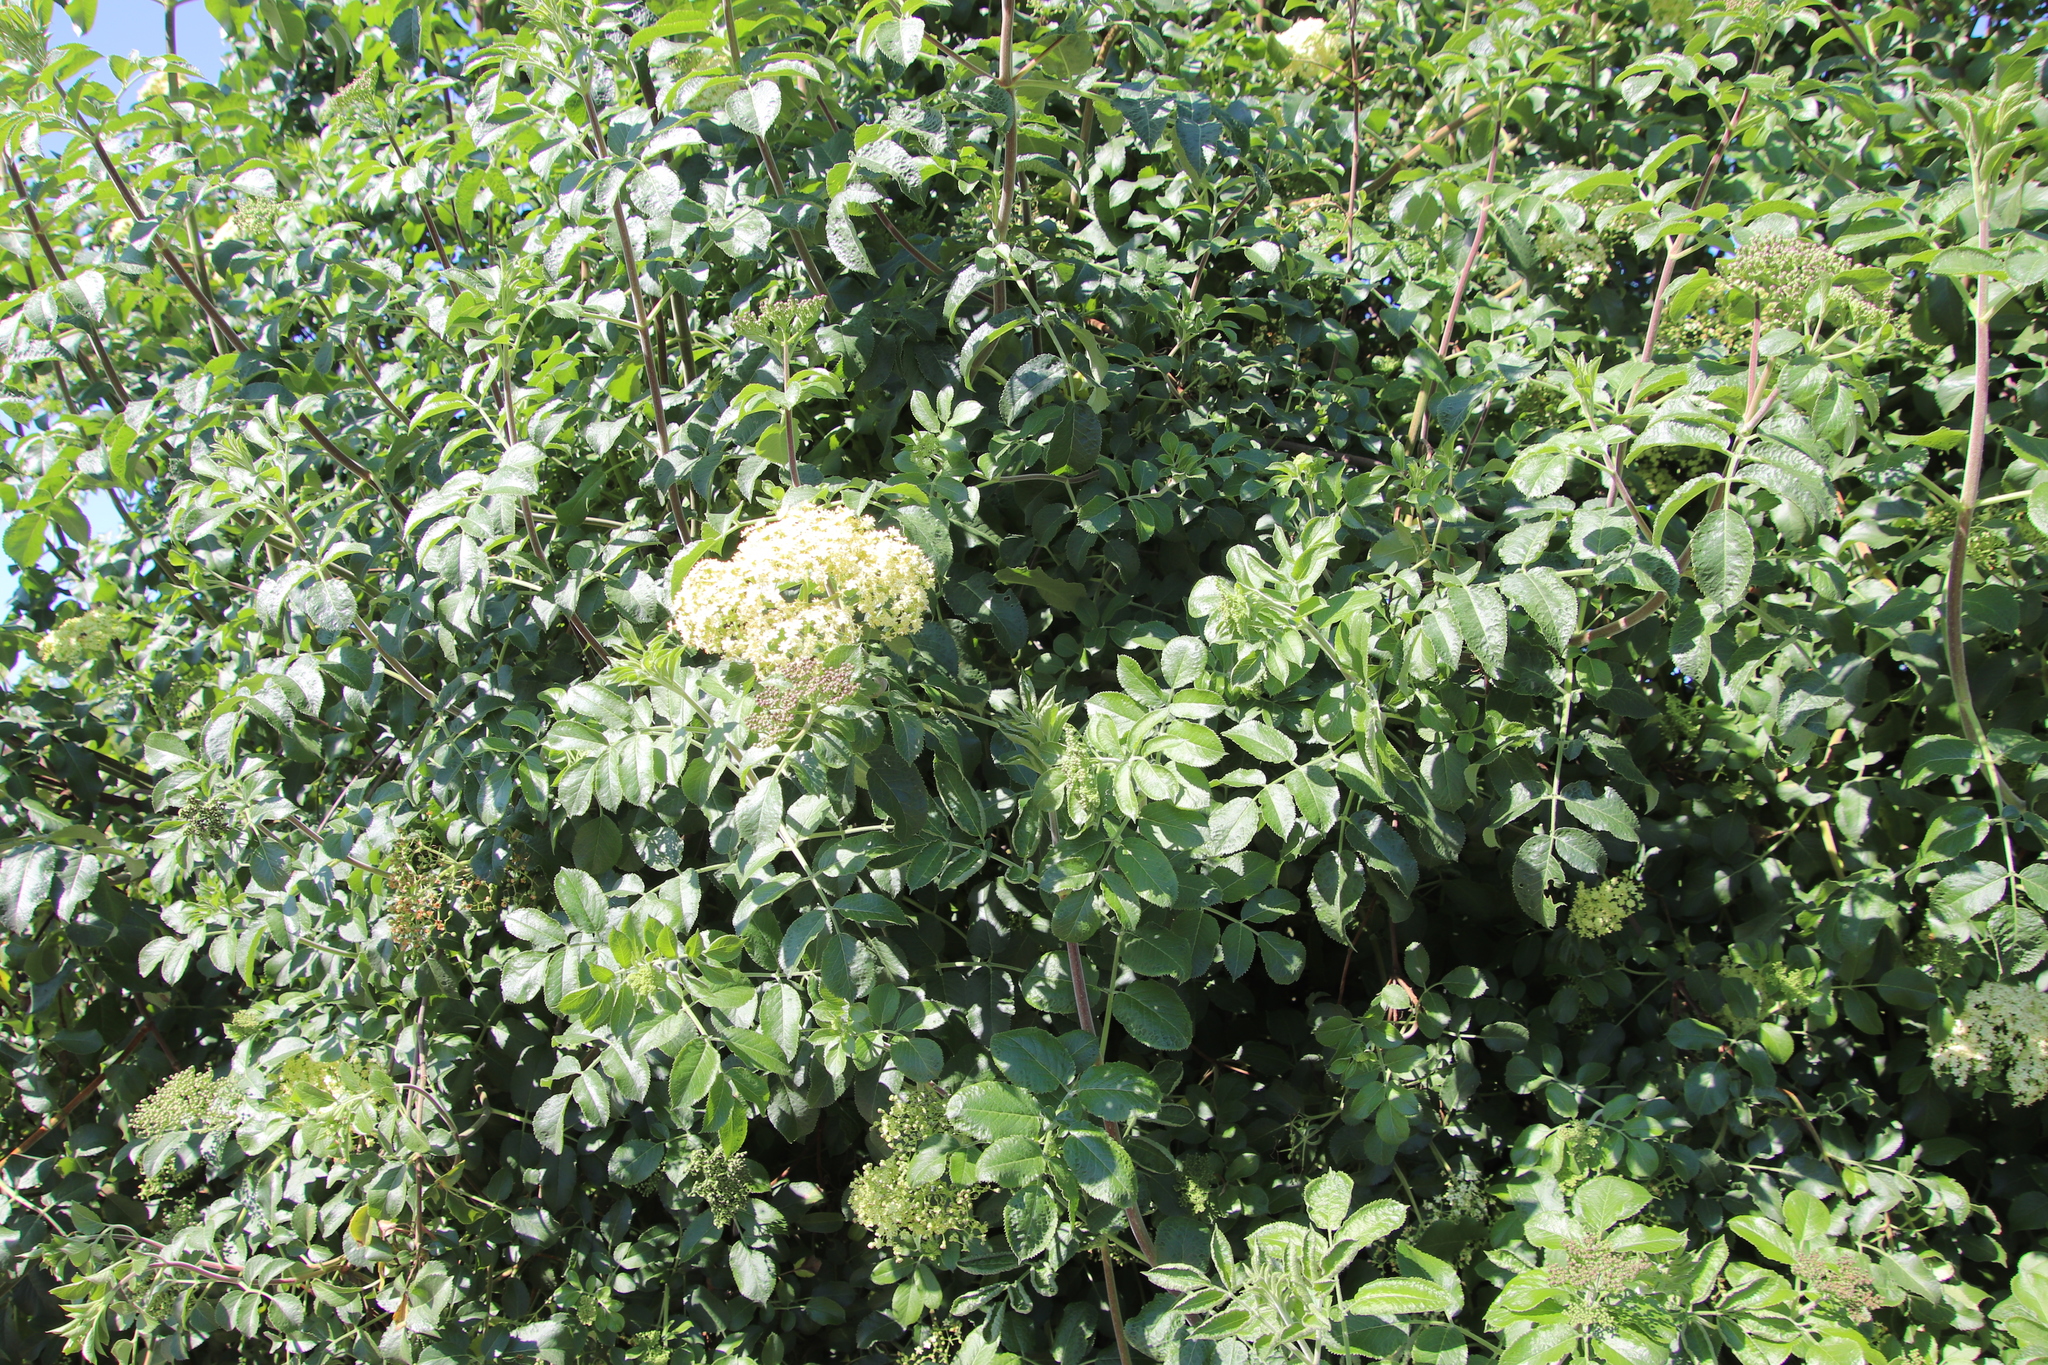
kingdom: Plantae
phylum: Tracheophyta
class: Magnoliopsida
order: Dipsacales
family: Viburnaceae
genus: Sambucus
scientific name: Sambucus cerulea
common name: Blue elder
